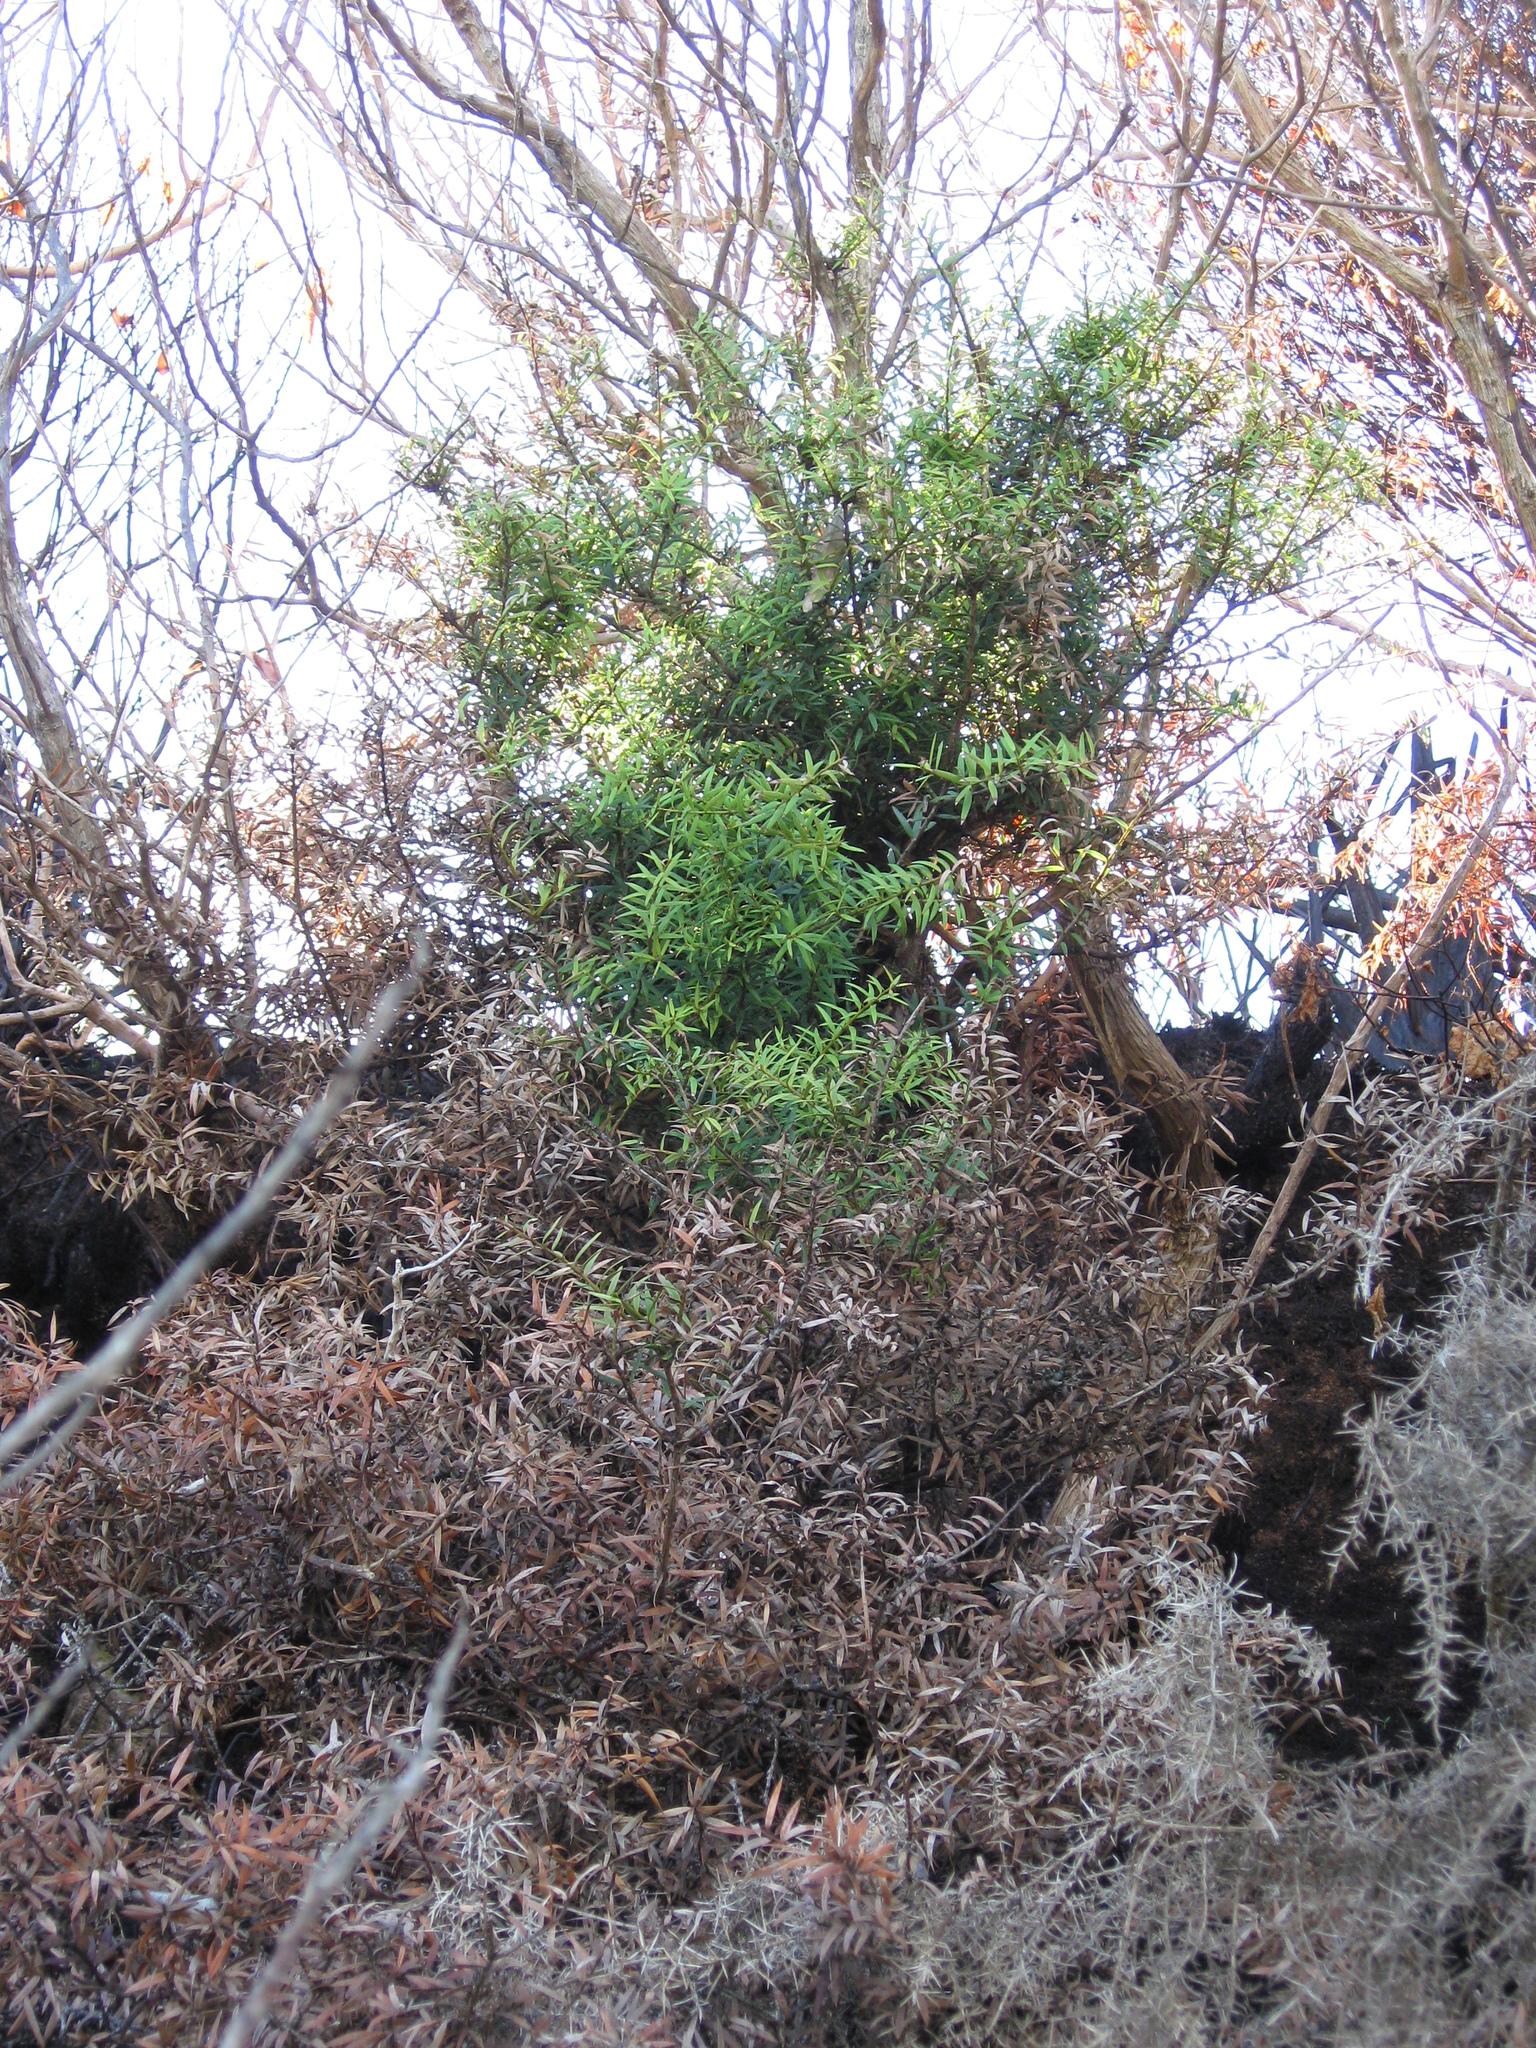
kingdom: Plantae
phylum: Tracheophyta
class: Pinopsida
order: Pinales
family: Podocarpaceae
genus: Podocarpus
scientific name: Podocarpus totara
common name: Totara
